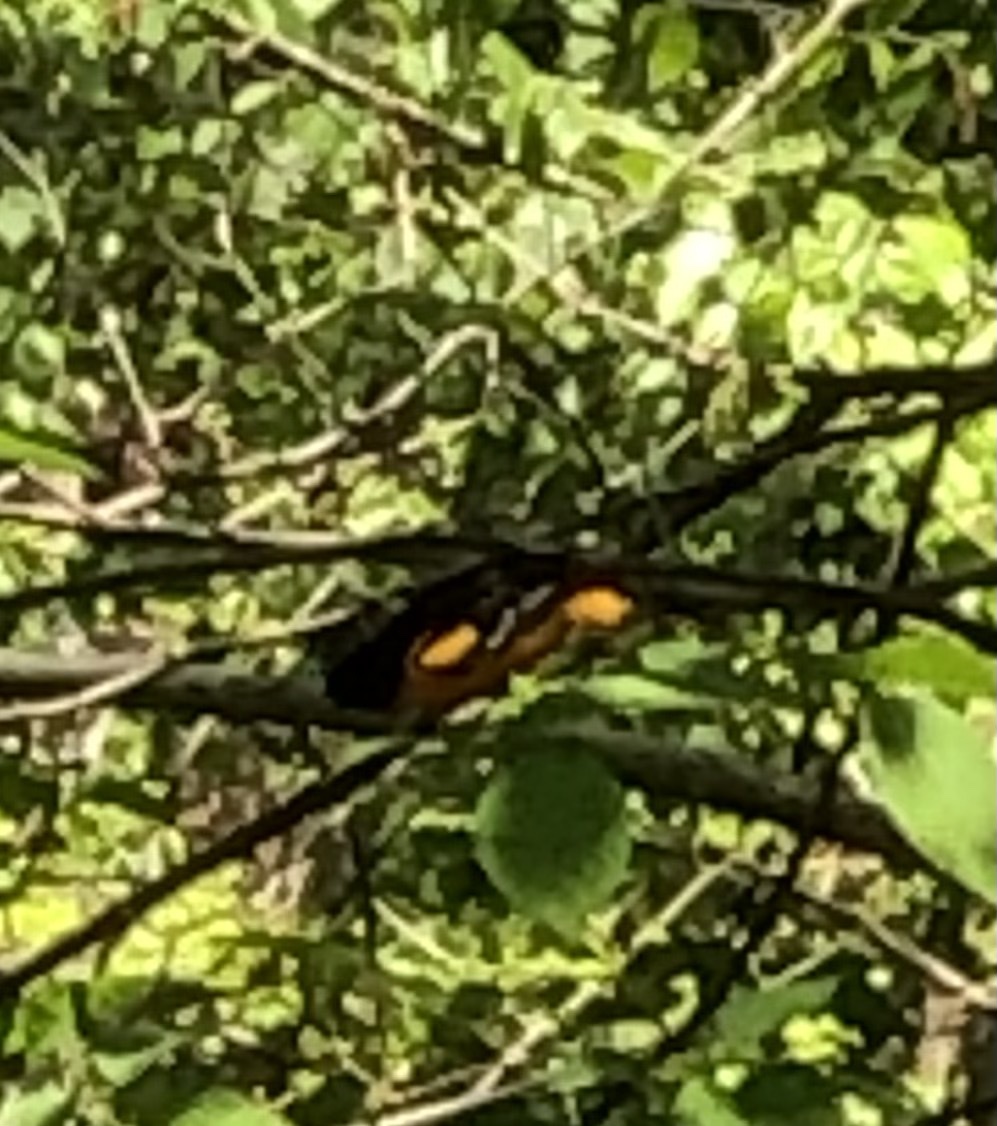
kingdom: Animalia
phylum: Chordata
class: Aves
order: Passeriformes
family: Icteridae
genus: Icterus
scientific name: Icterus galbula
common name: Baltimore oriole
